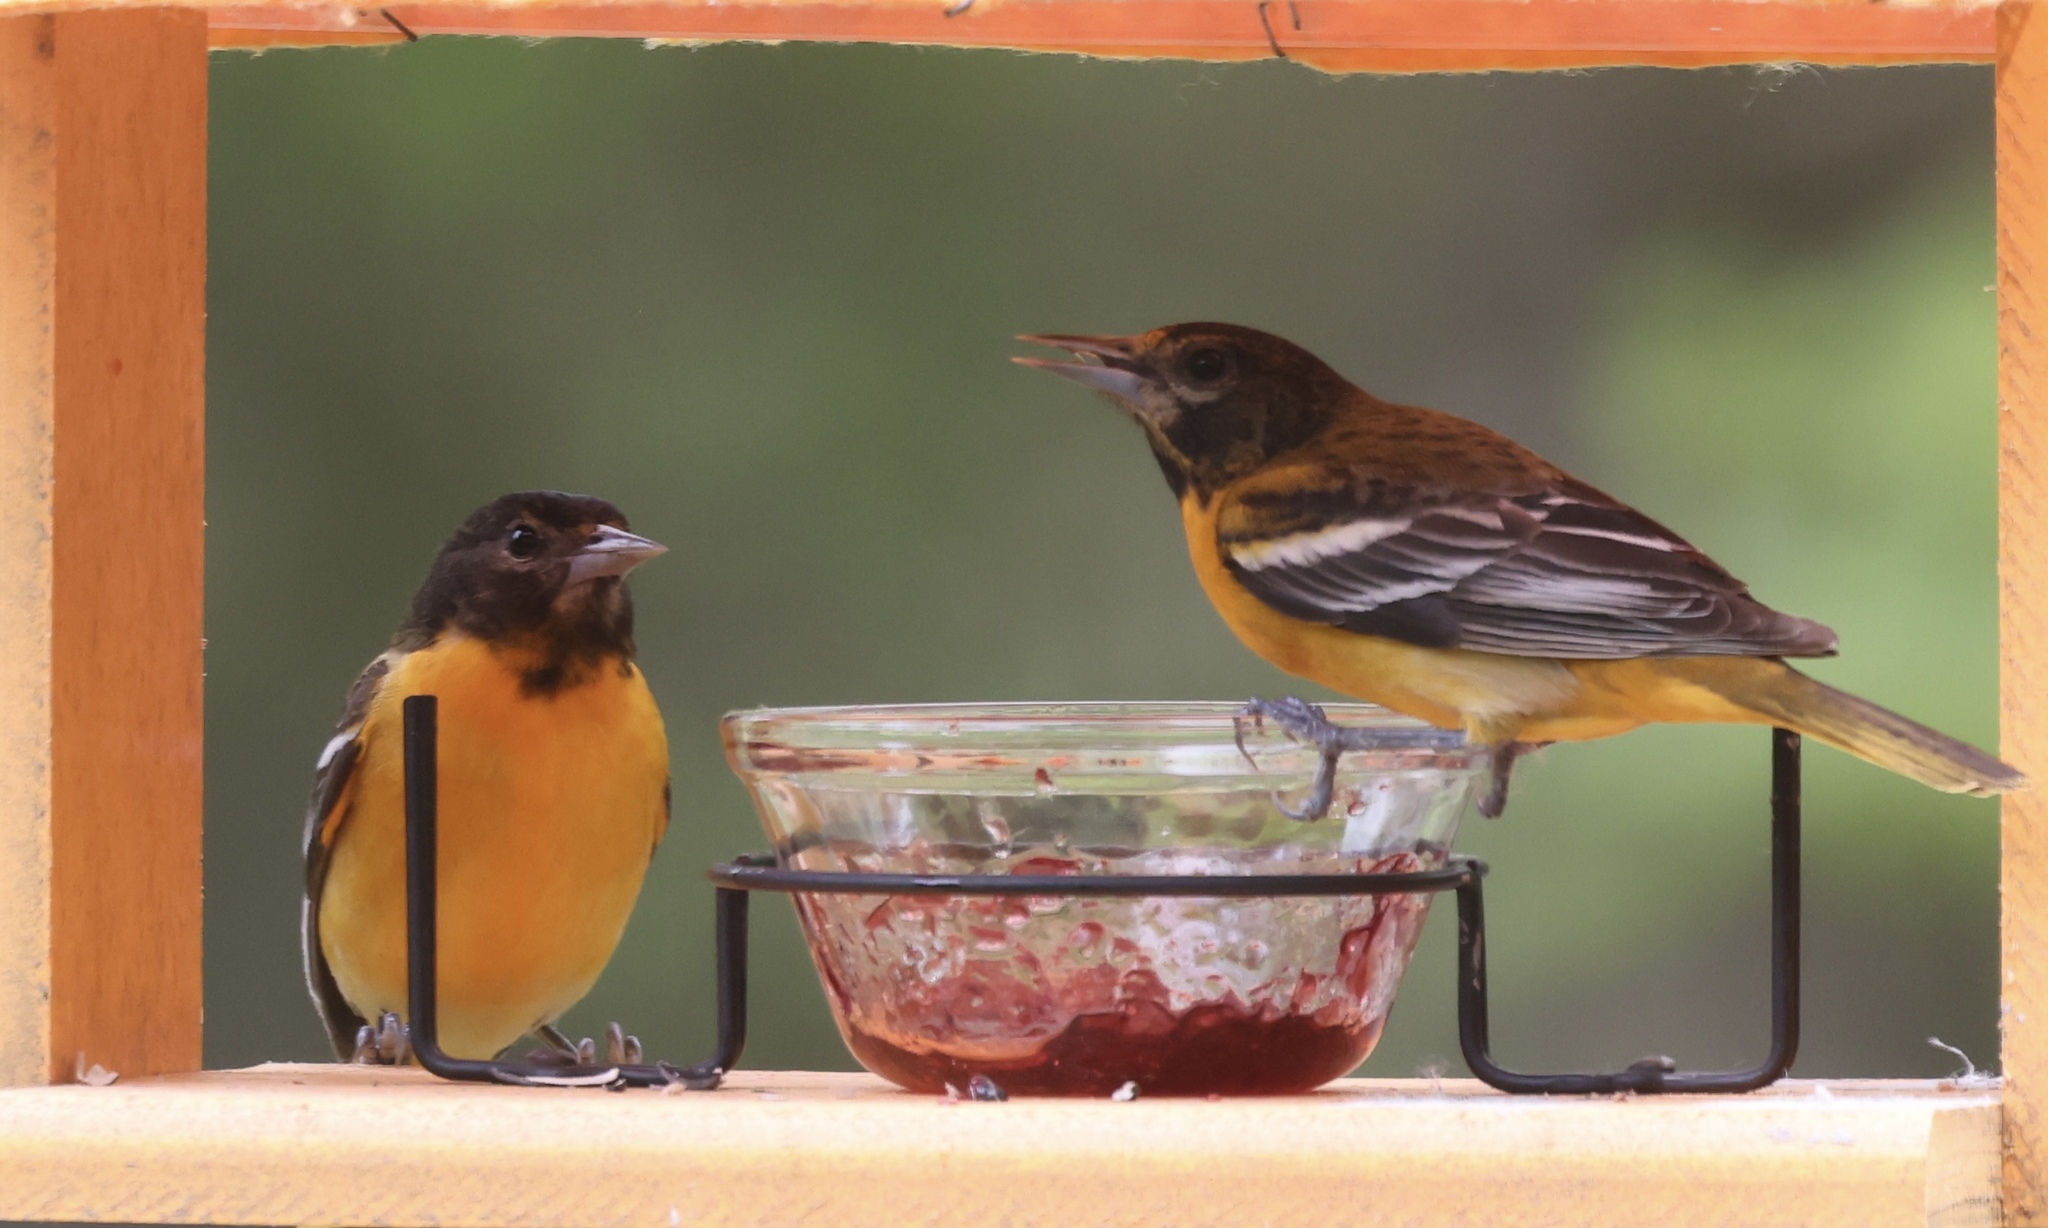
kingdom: Animalia
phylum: Chordata
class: Aves
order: Passeriformes
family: Icteridae
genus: Icterus
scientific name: Icterus galbula
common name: Baltimore oriole
